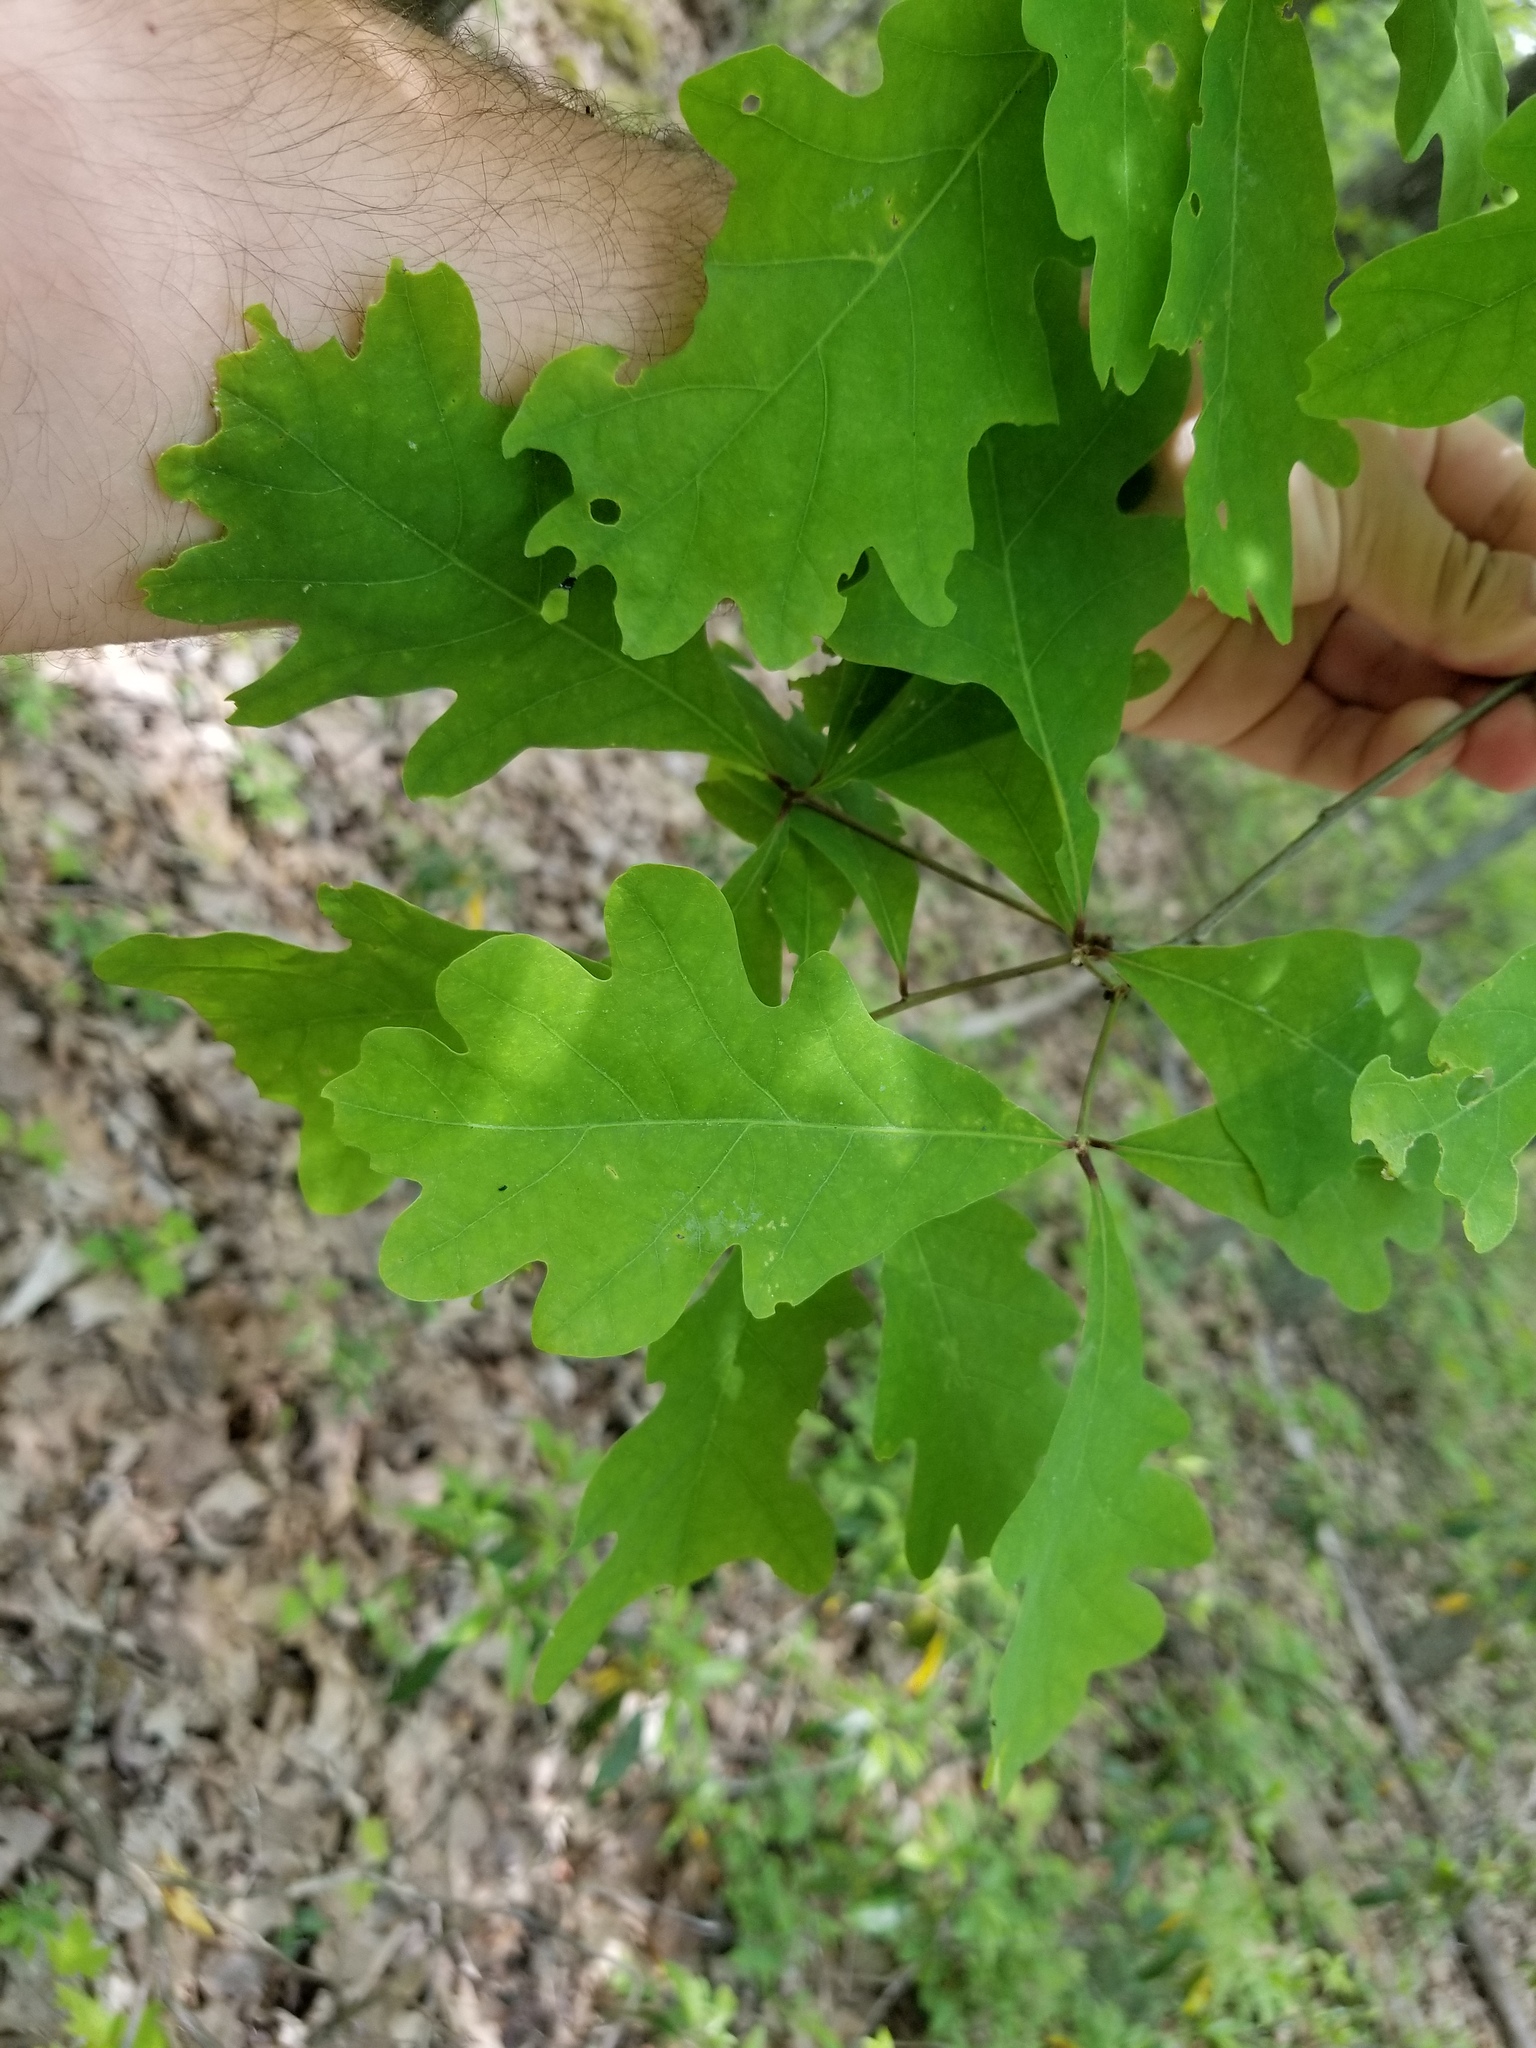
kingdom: Plantae
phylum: Tracheophyta
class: Magnoliopsida
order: Fagales
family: Fagaceae
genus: Quercus
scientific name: Quercus alba
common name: White oak
